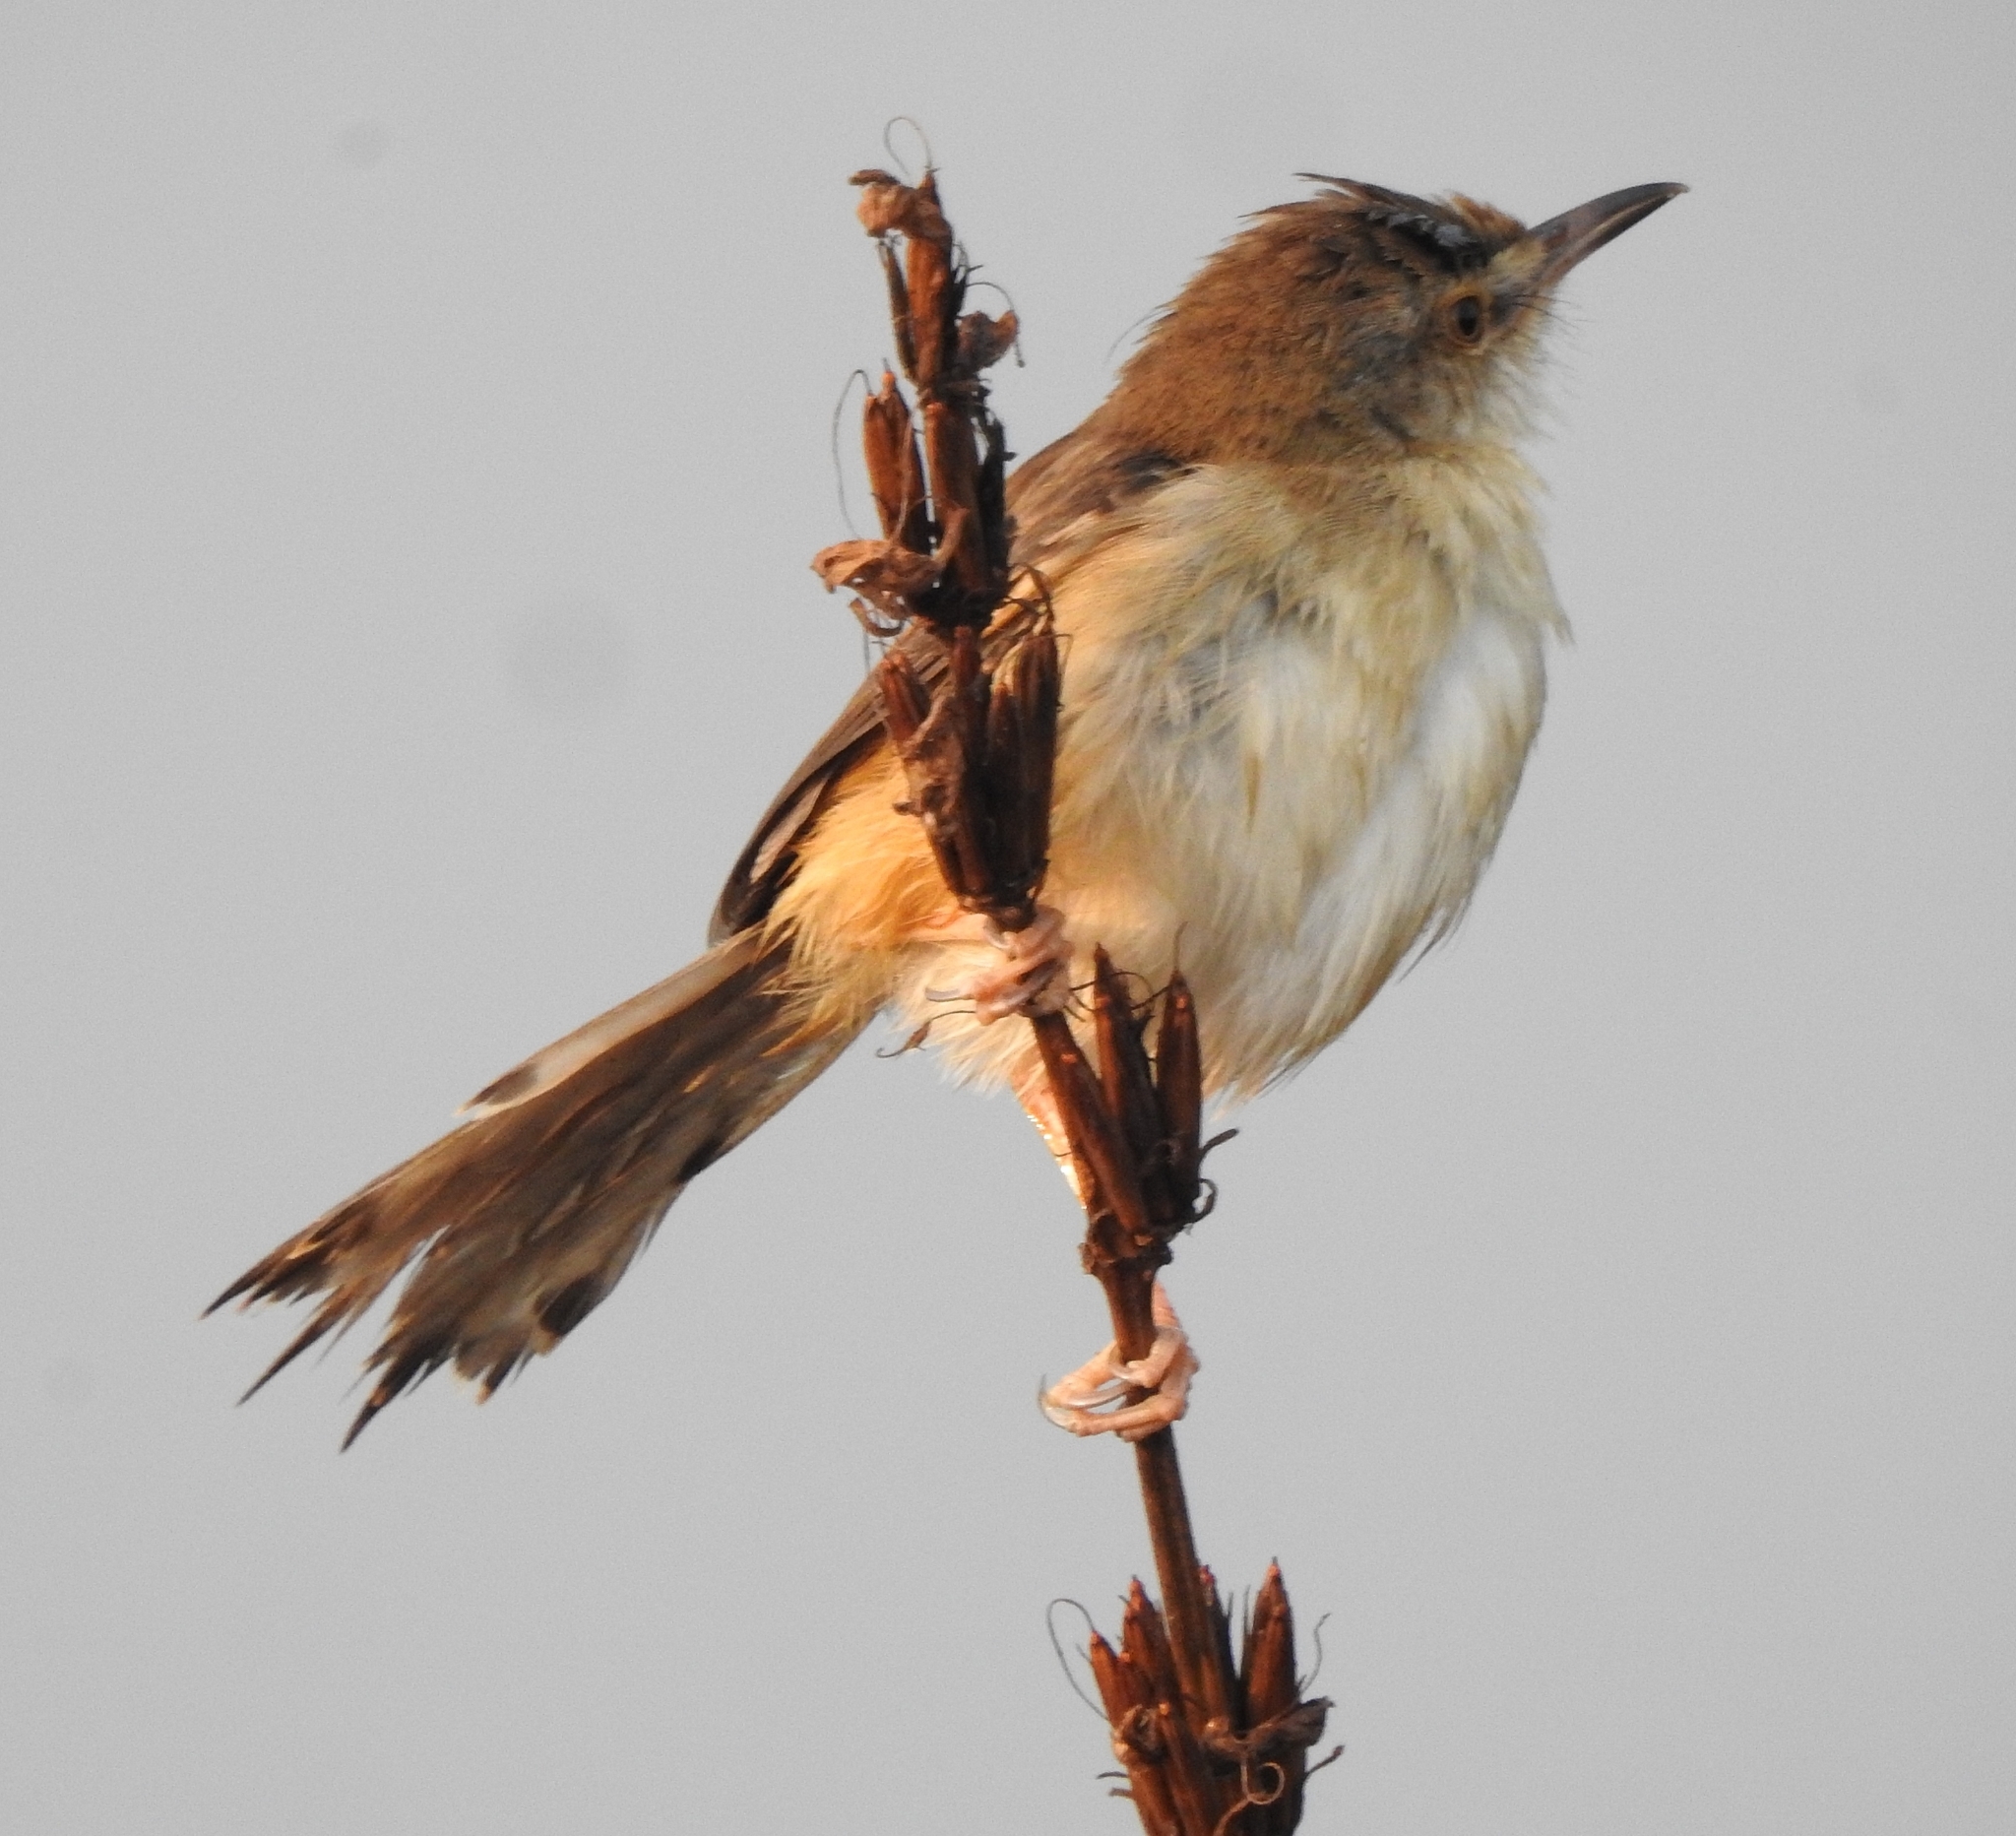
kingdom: Animalia
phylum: Chordata
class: Aves
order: Passeriformes
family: Cisticolidae
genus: Prinia
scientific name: Prinia inornata
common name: Plain prinia
